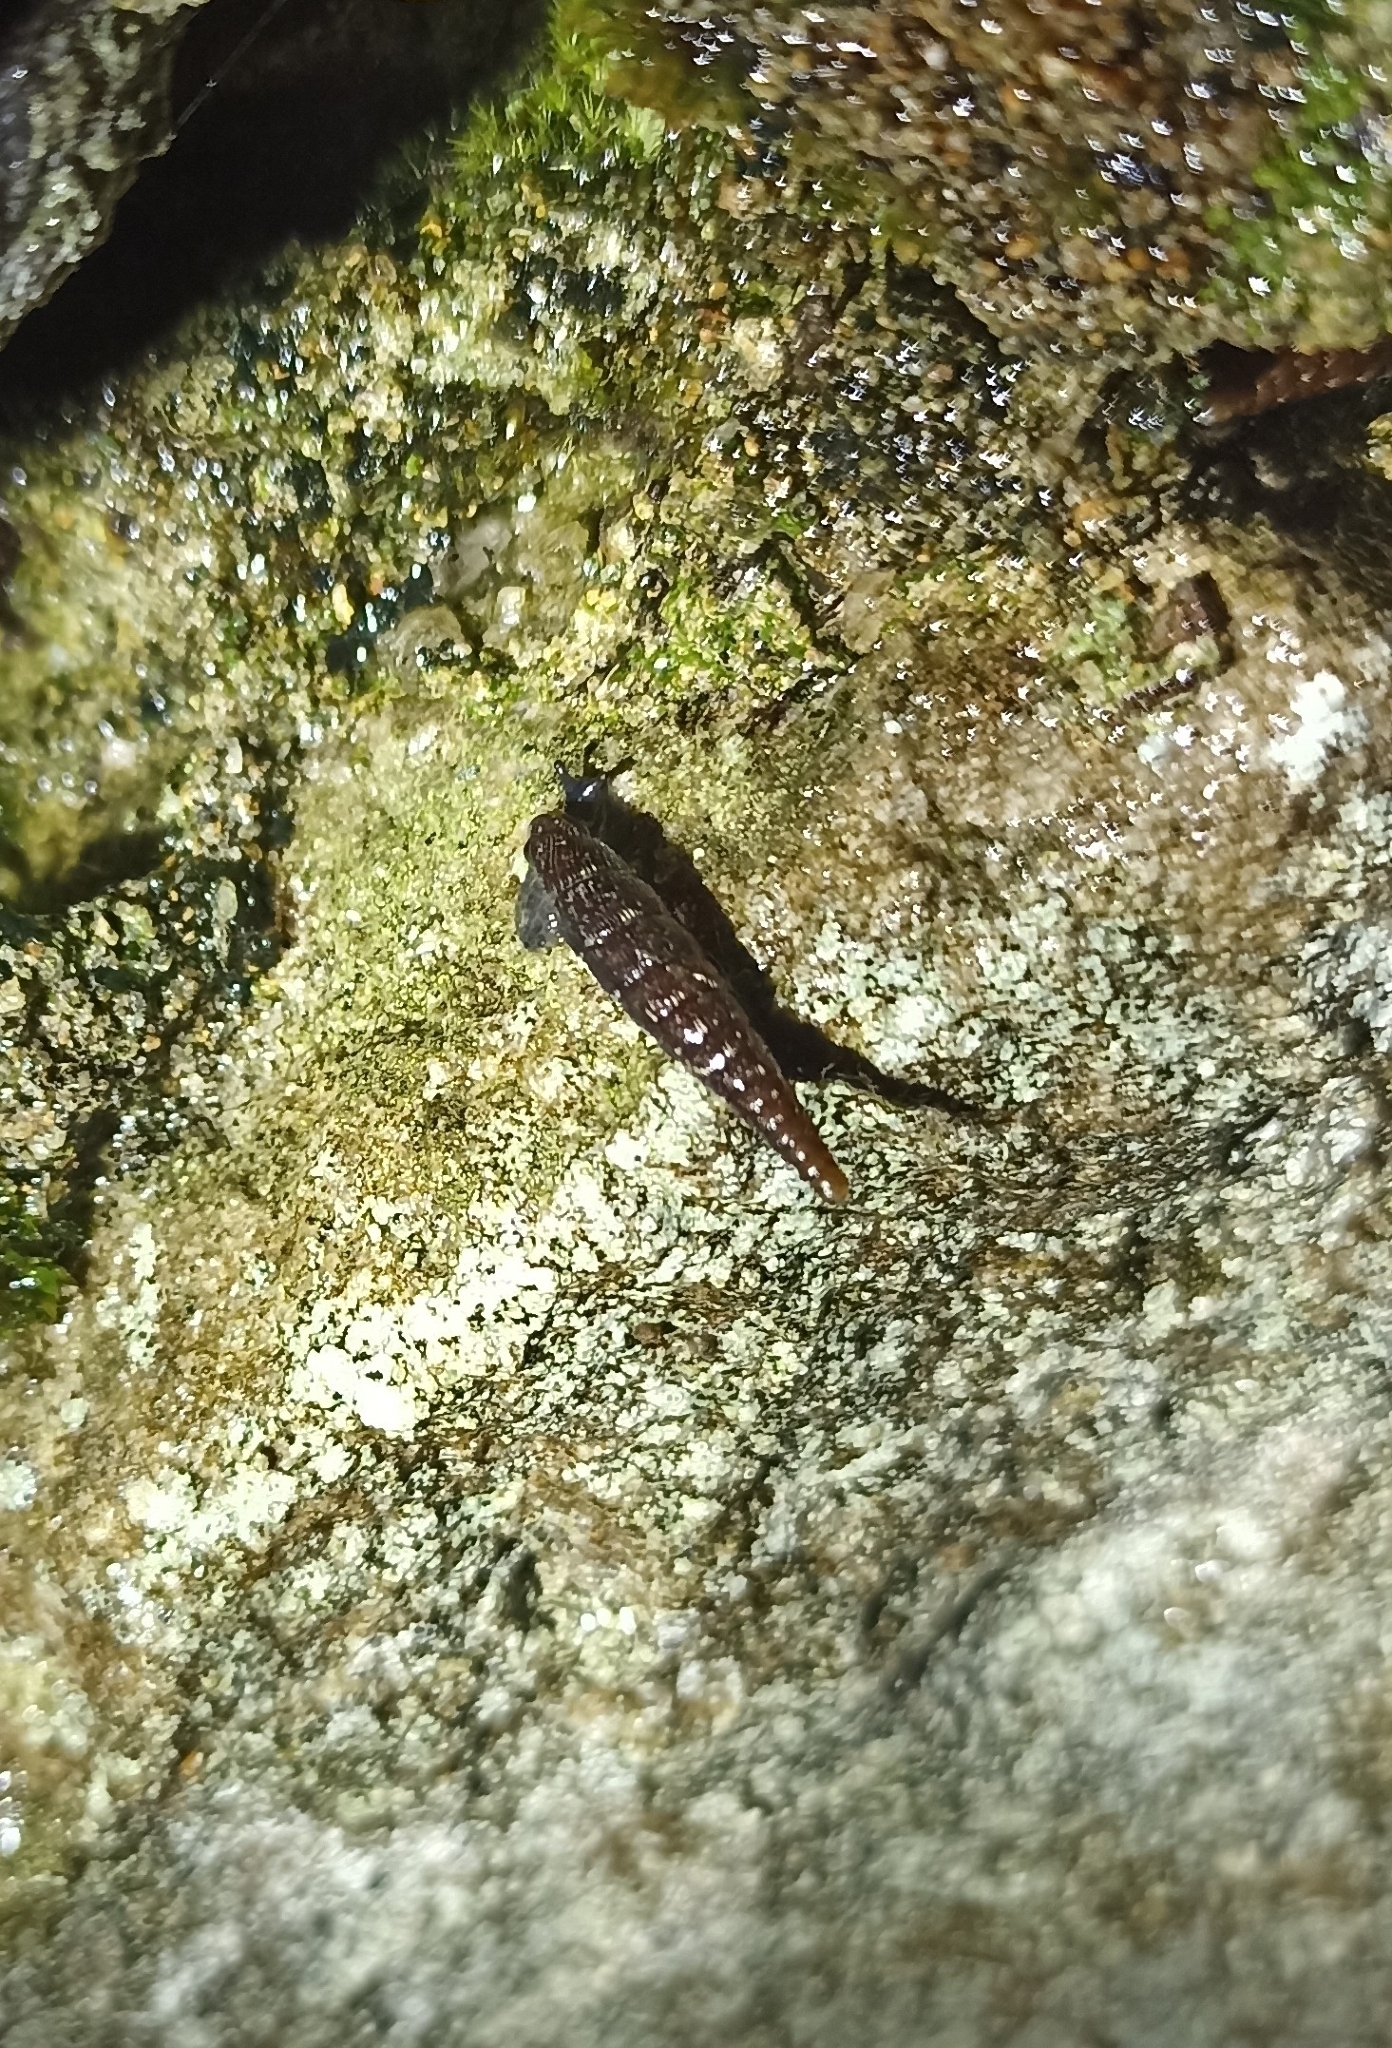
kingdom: Animalia
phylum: Mollusca
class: Gastropoda
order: Stylommatophora
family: Clausiliidae
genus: Clausilia
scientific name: Clausilia bidentata
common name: Two-toothed door snail
